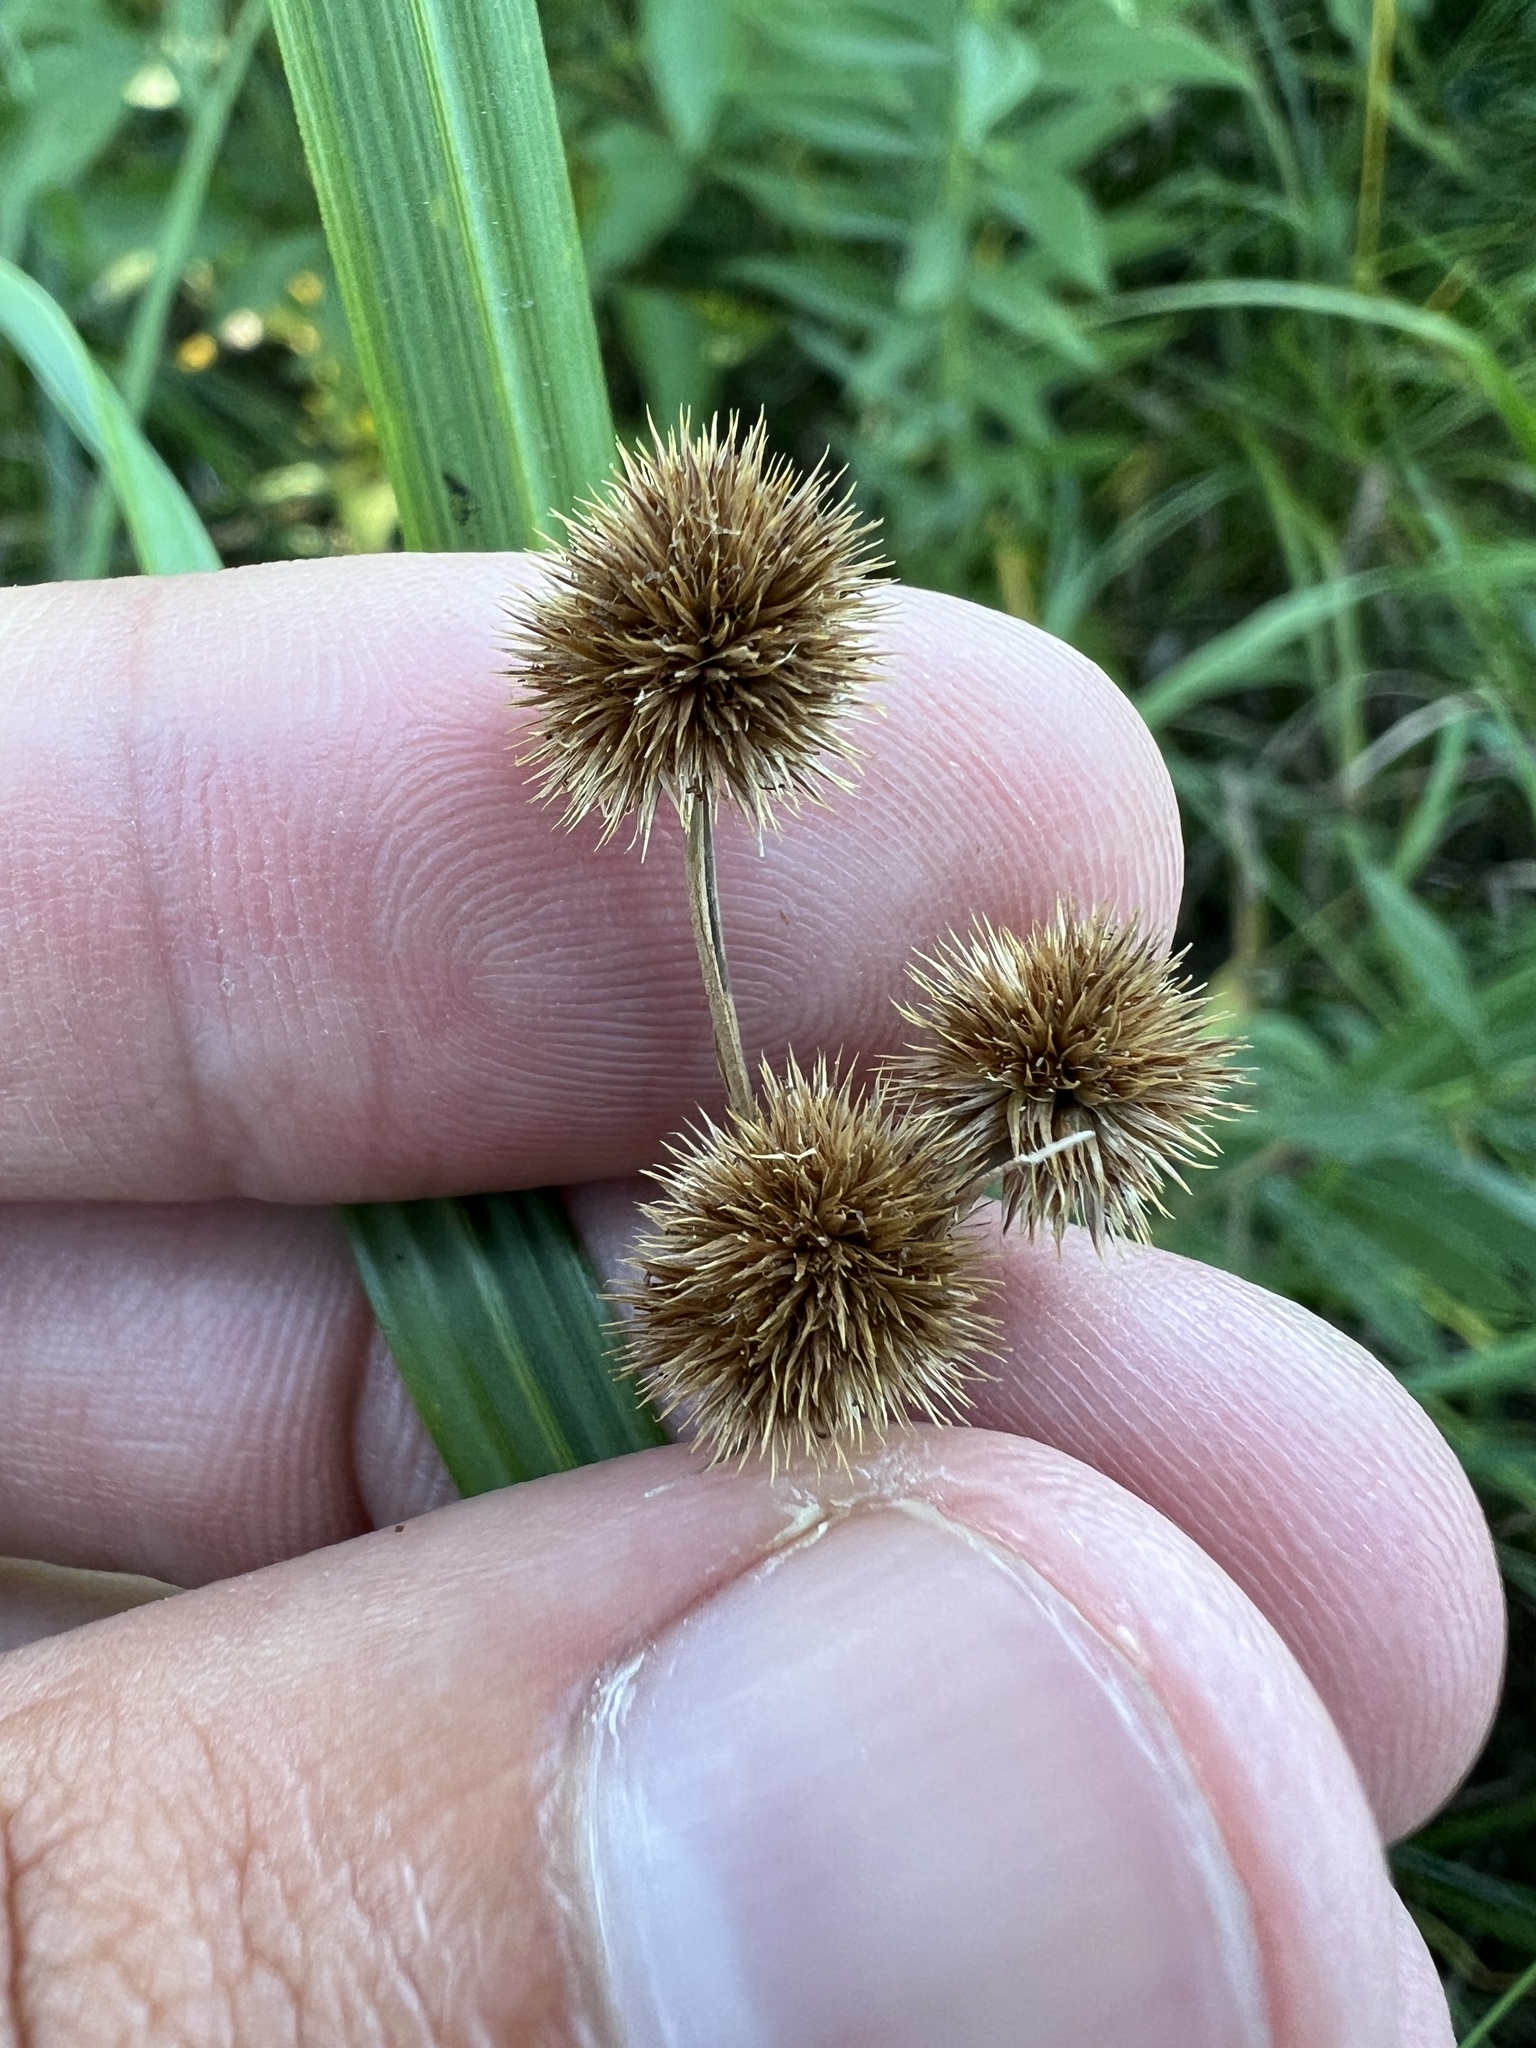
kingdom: Plantae
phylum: Tracheophyta
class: Liliopsida
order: Poales
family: Juncaceae
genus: Juncus
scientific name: Juncus brachycarpus
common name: Shore rush
